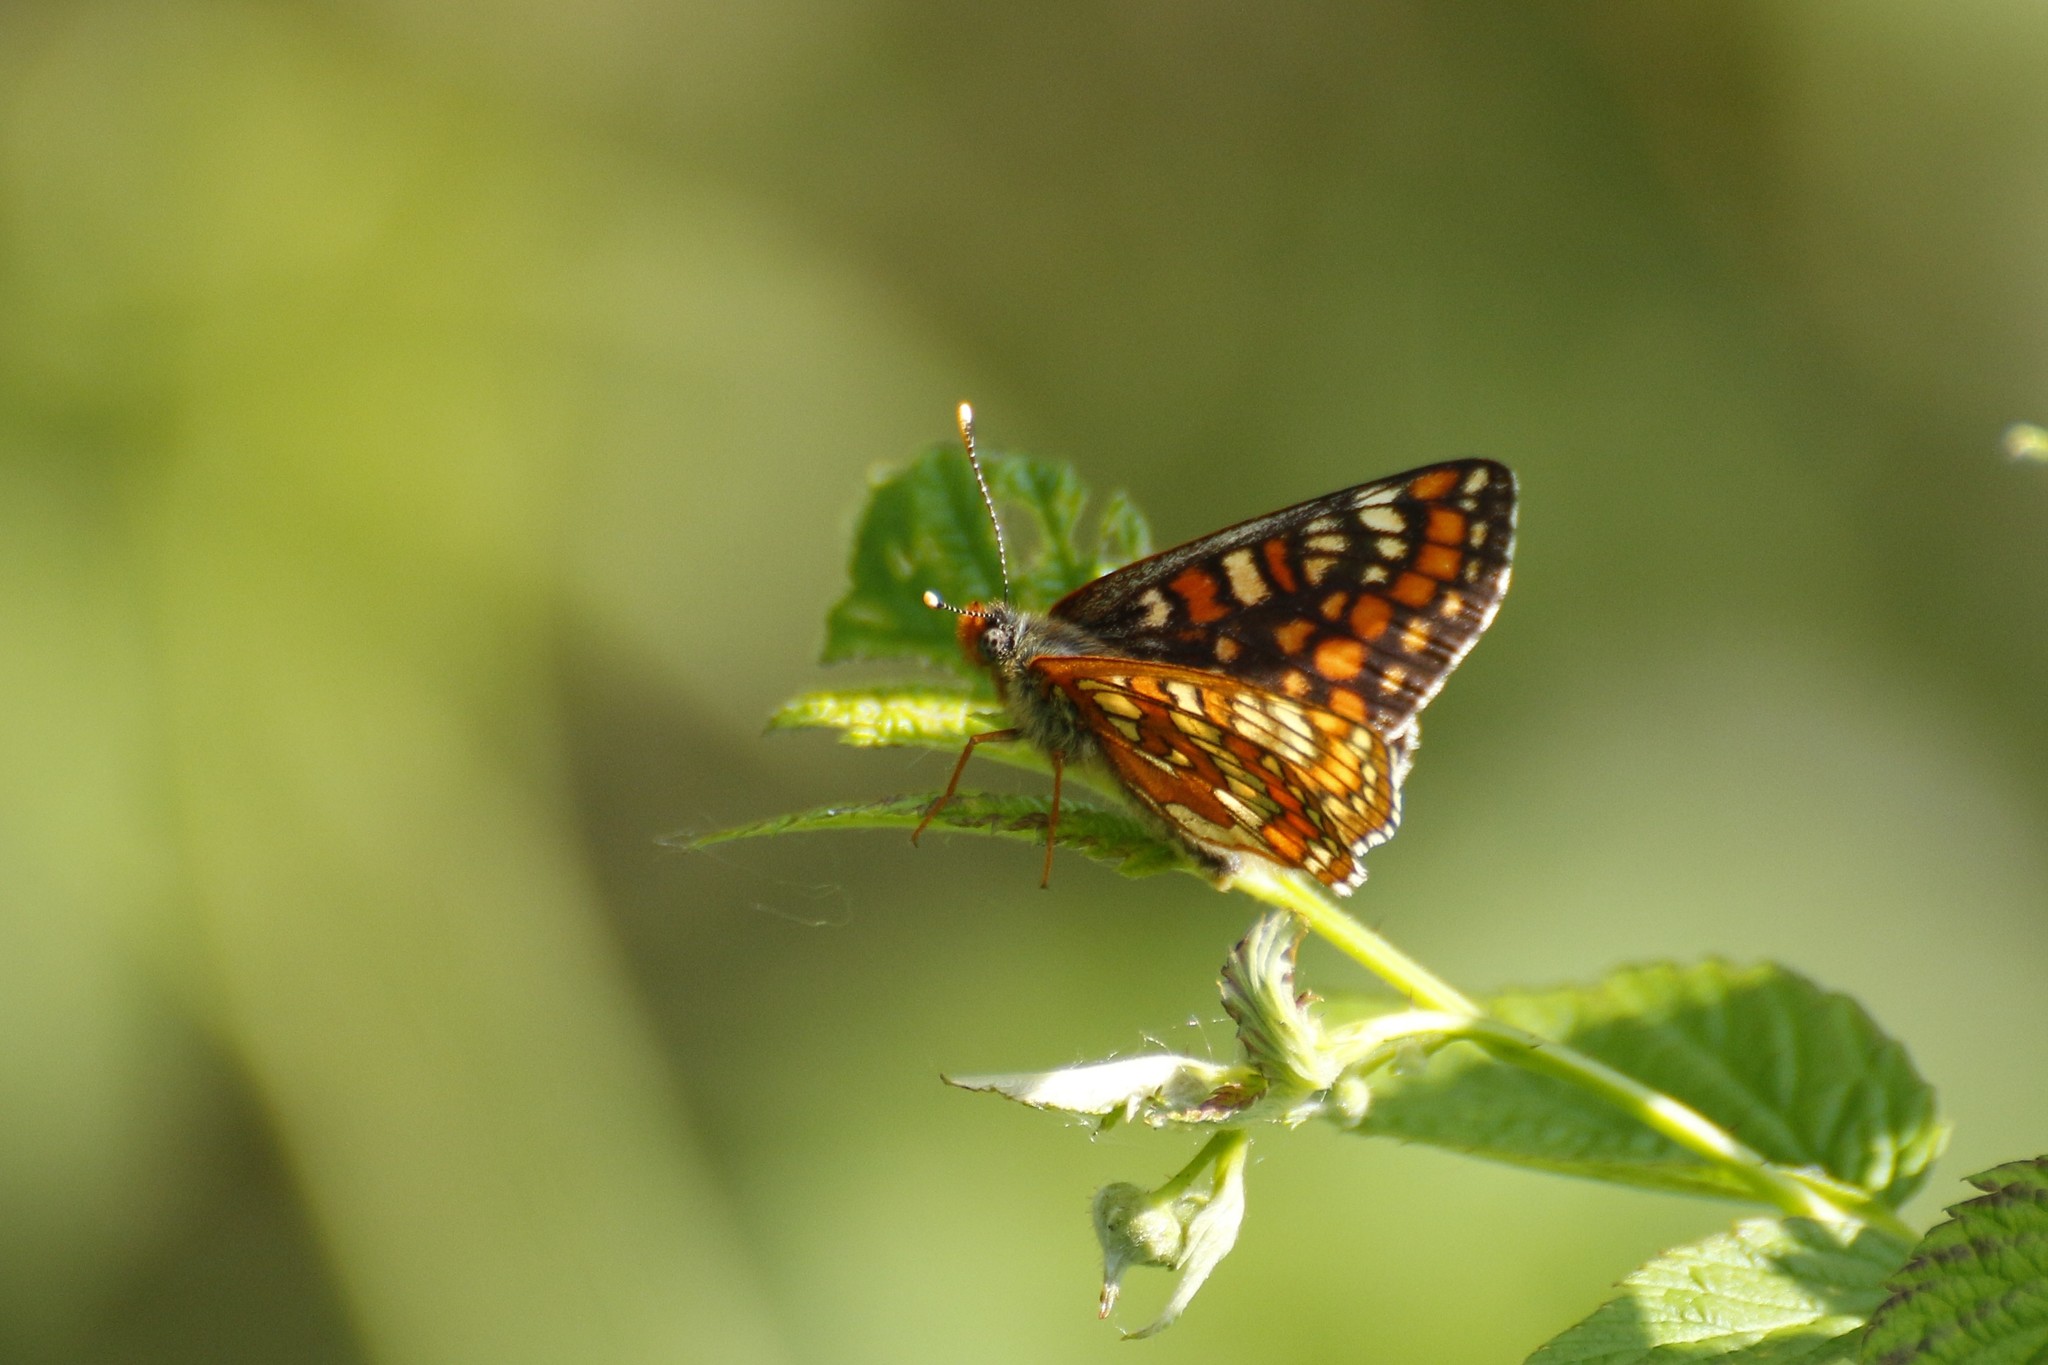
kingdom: Animalia
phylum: Arthropoda
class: Insecta
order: Lepidoptera
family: Nymphalidae
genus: Euphydryas
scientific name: Euphydryas maturna
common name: Scarce fritillary
